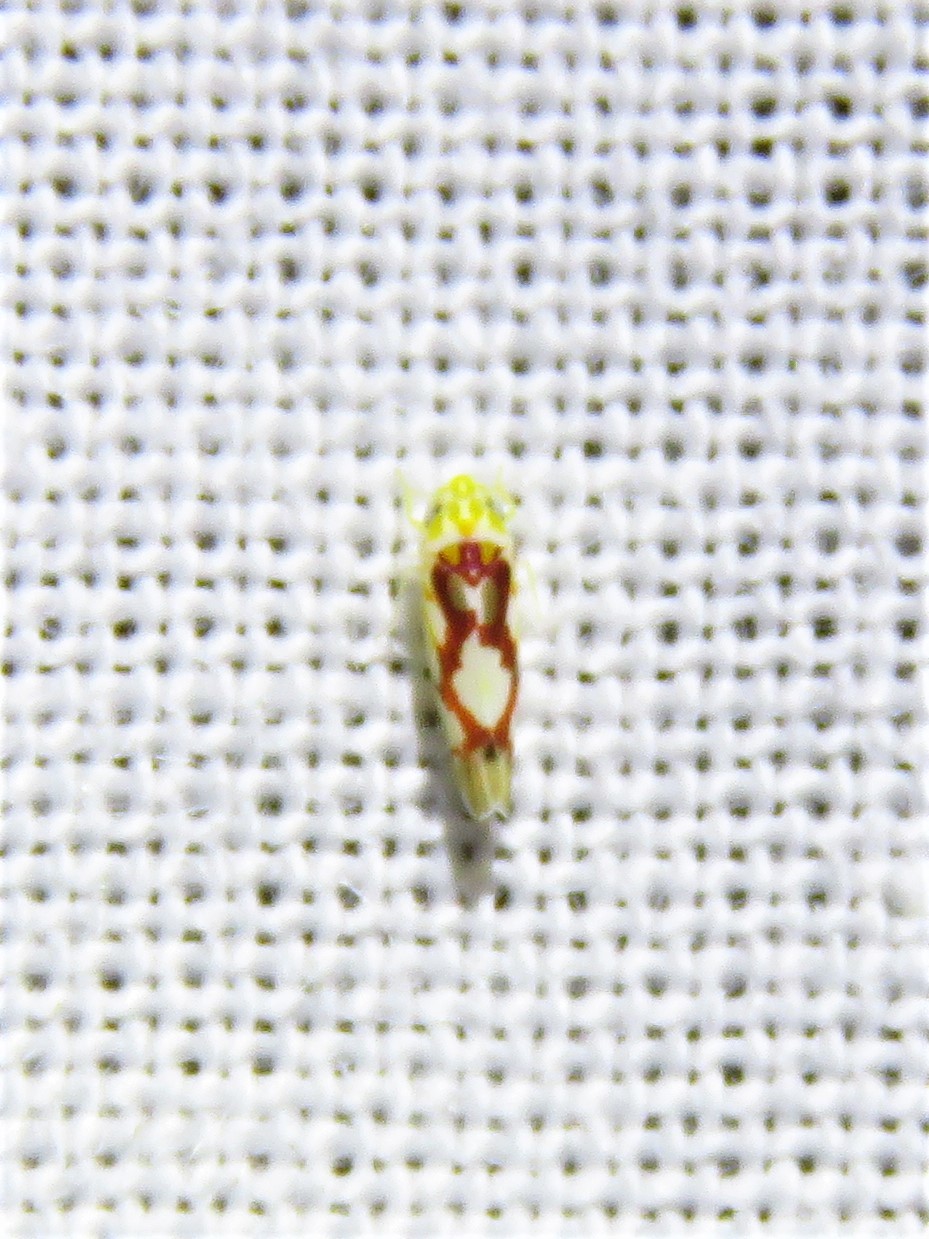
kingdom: Animalia
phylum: Arthropoda
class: Insecta
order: Hemiptera
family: Cicadellidae
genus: Eratoneura
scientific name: Eratoneura ligata
